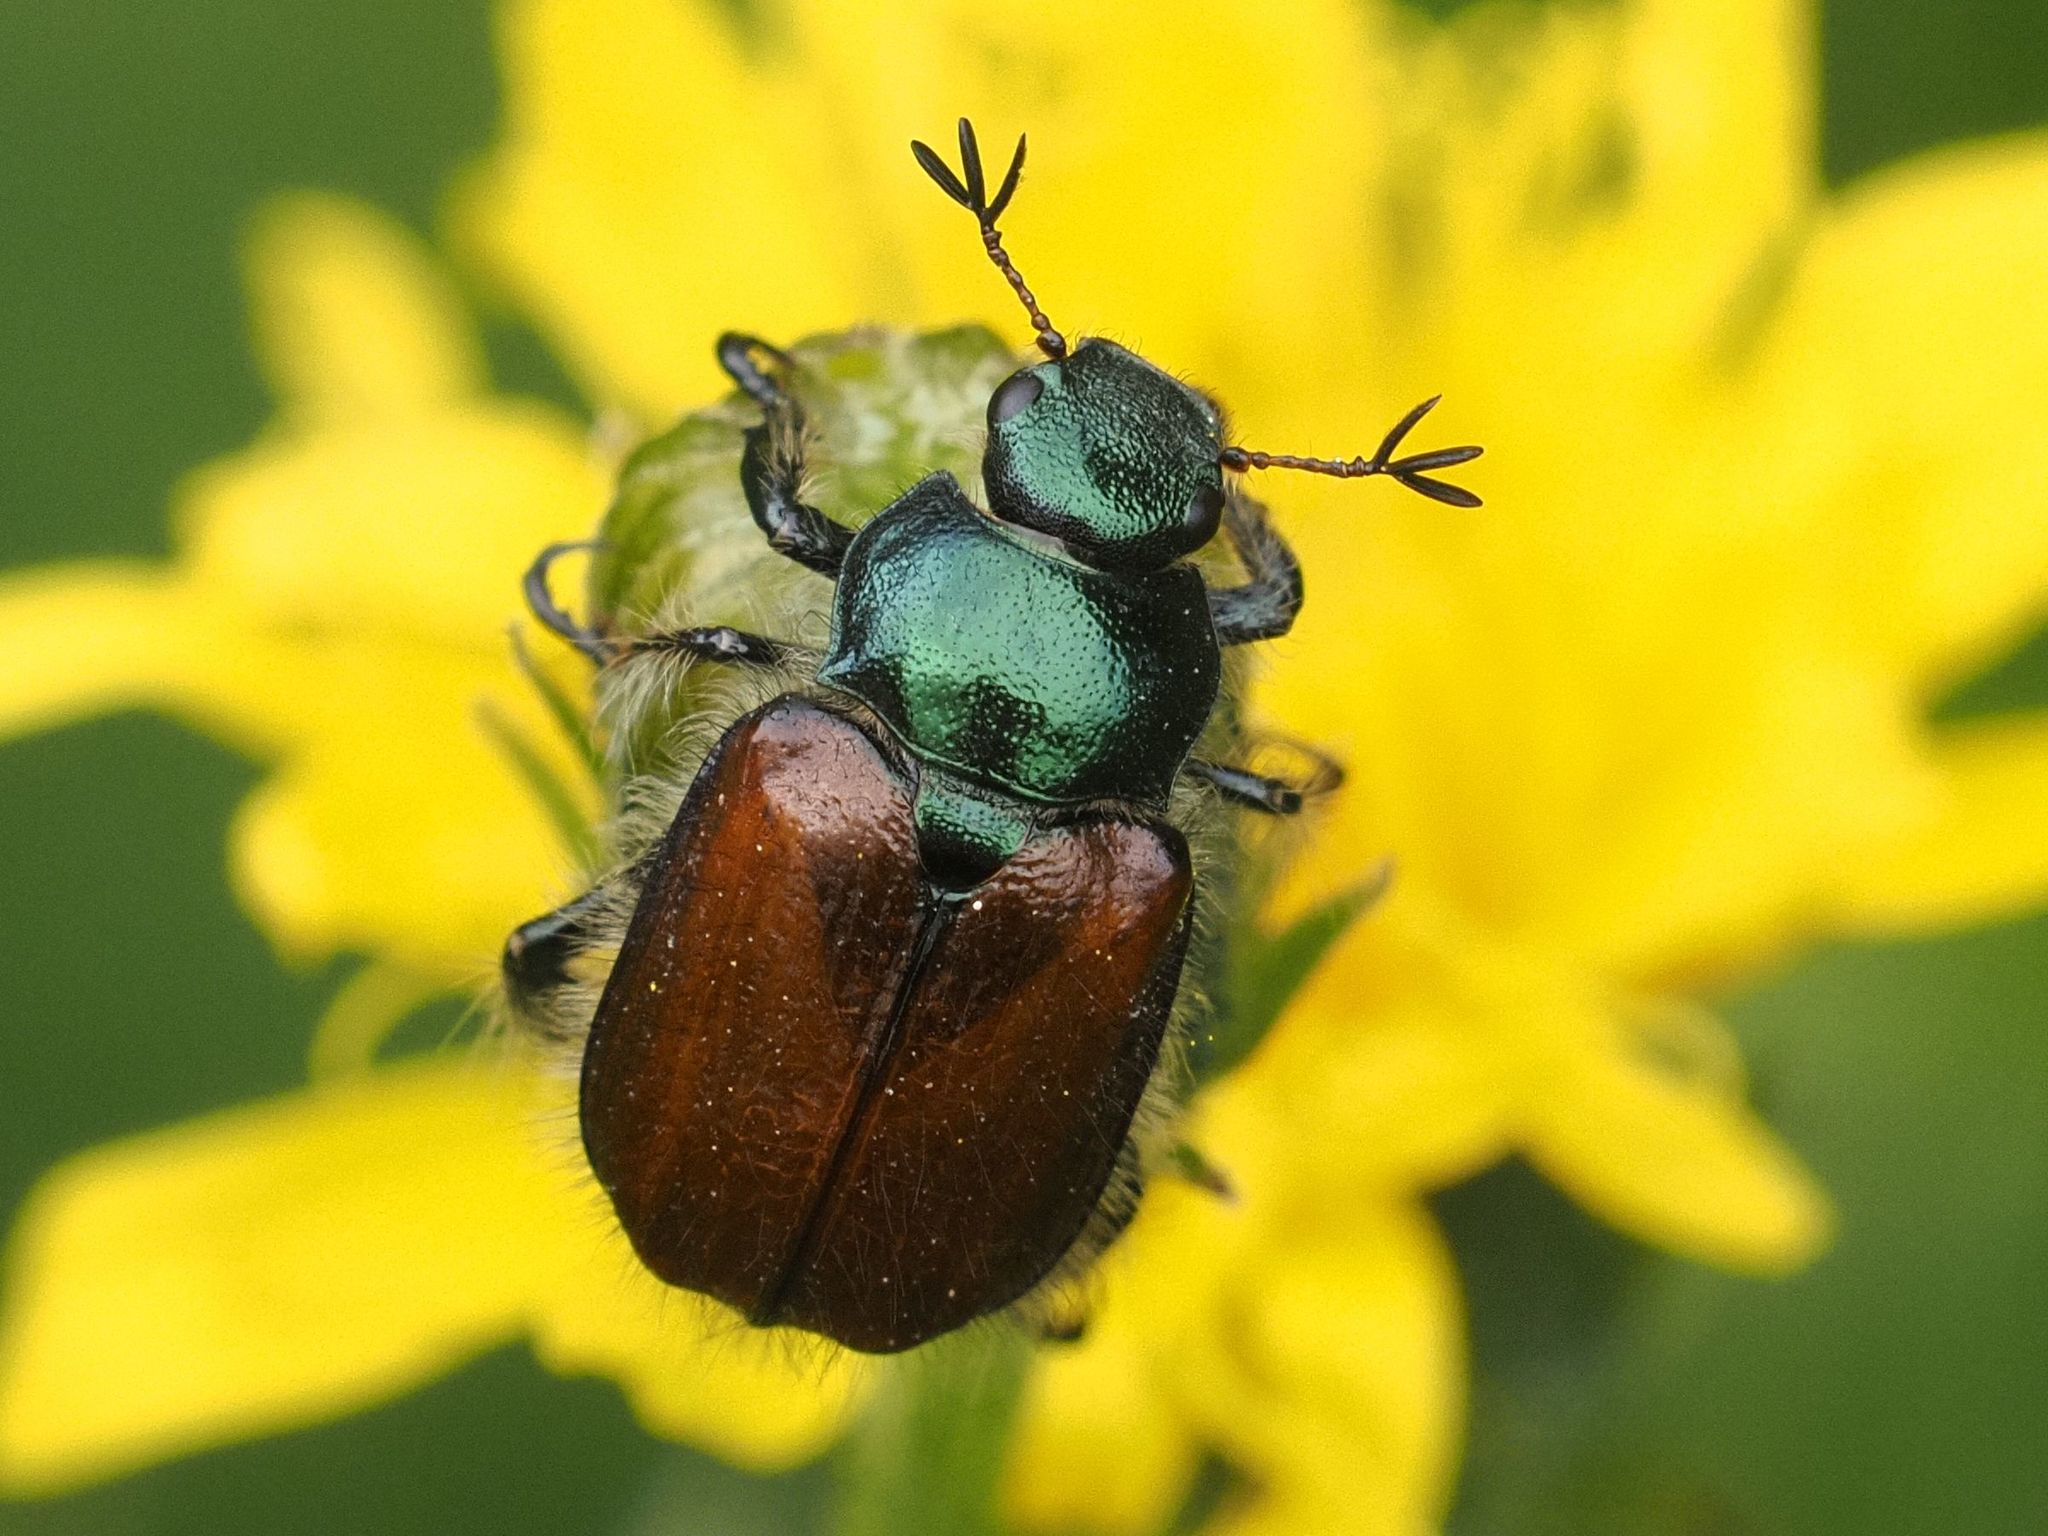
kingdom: Animalia
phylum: Arthropoda
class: Insecta
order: Coleoptera
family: Scarabaeidae
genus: Phyllopertha
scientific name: Phyllopertha horticola
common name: Garden chafer
